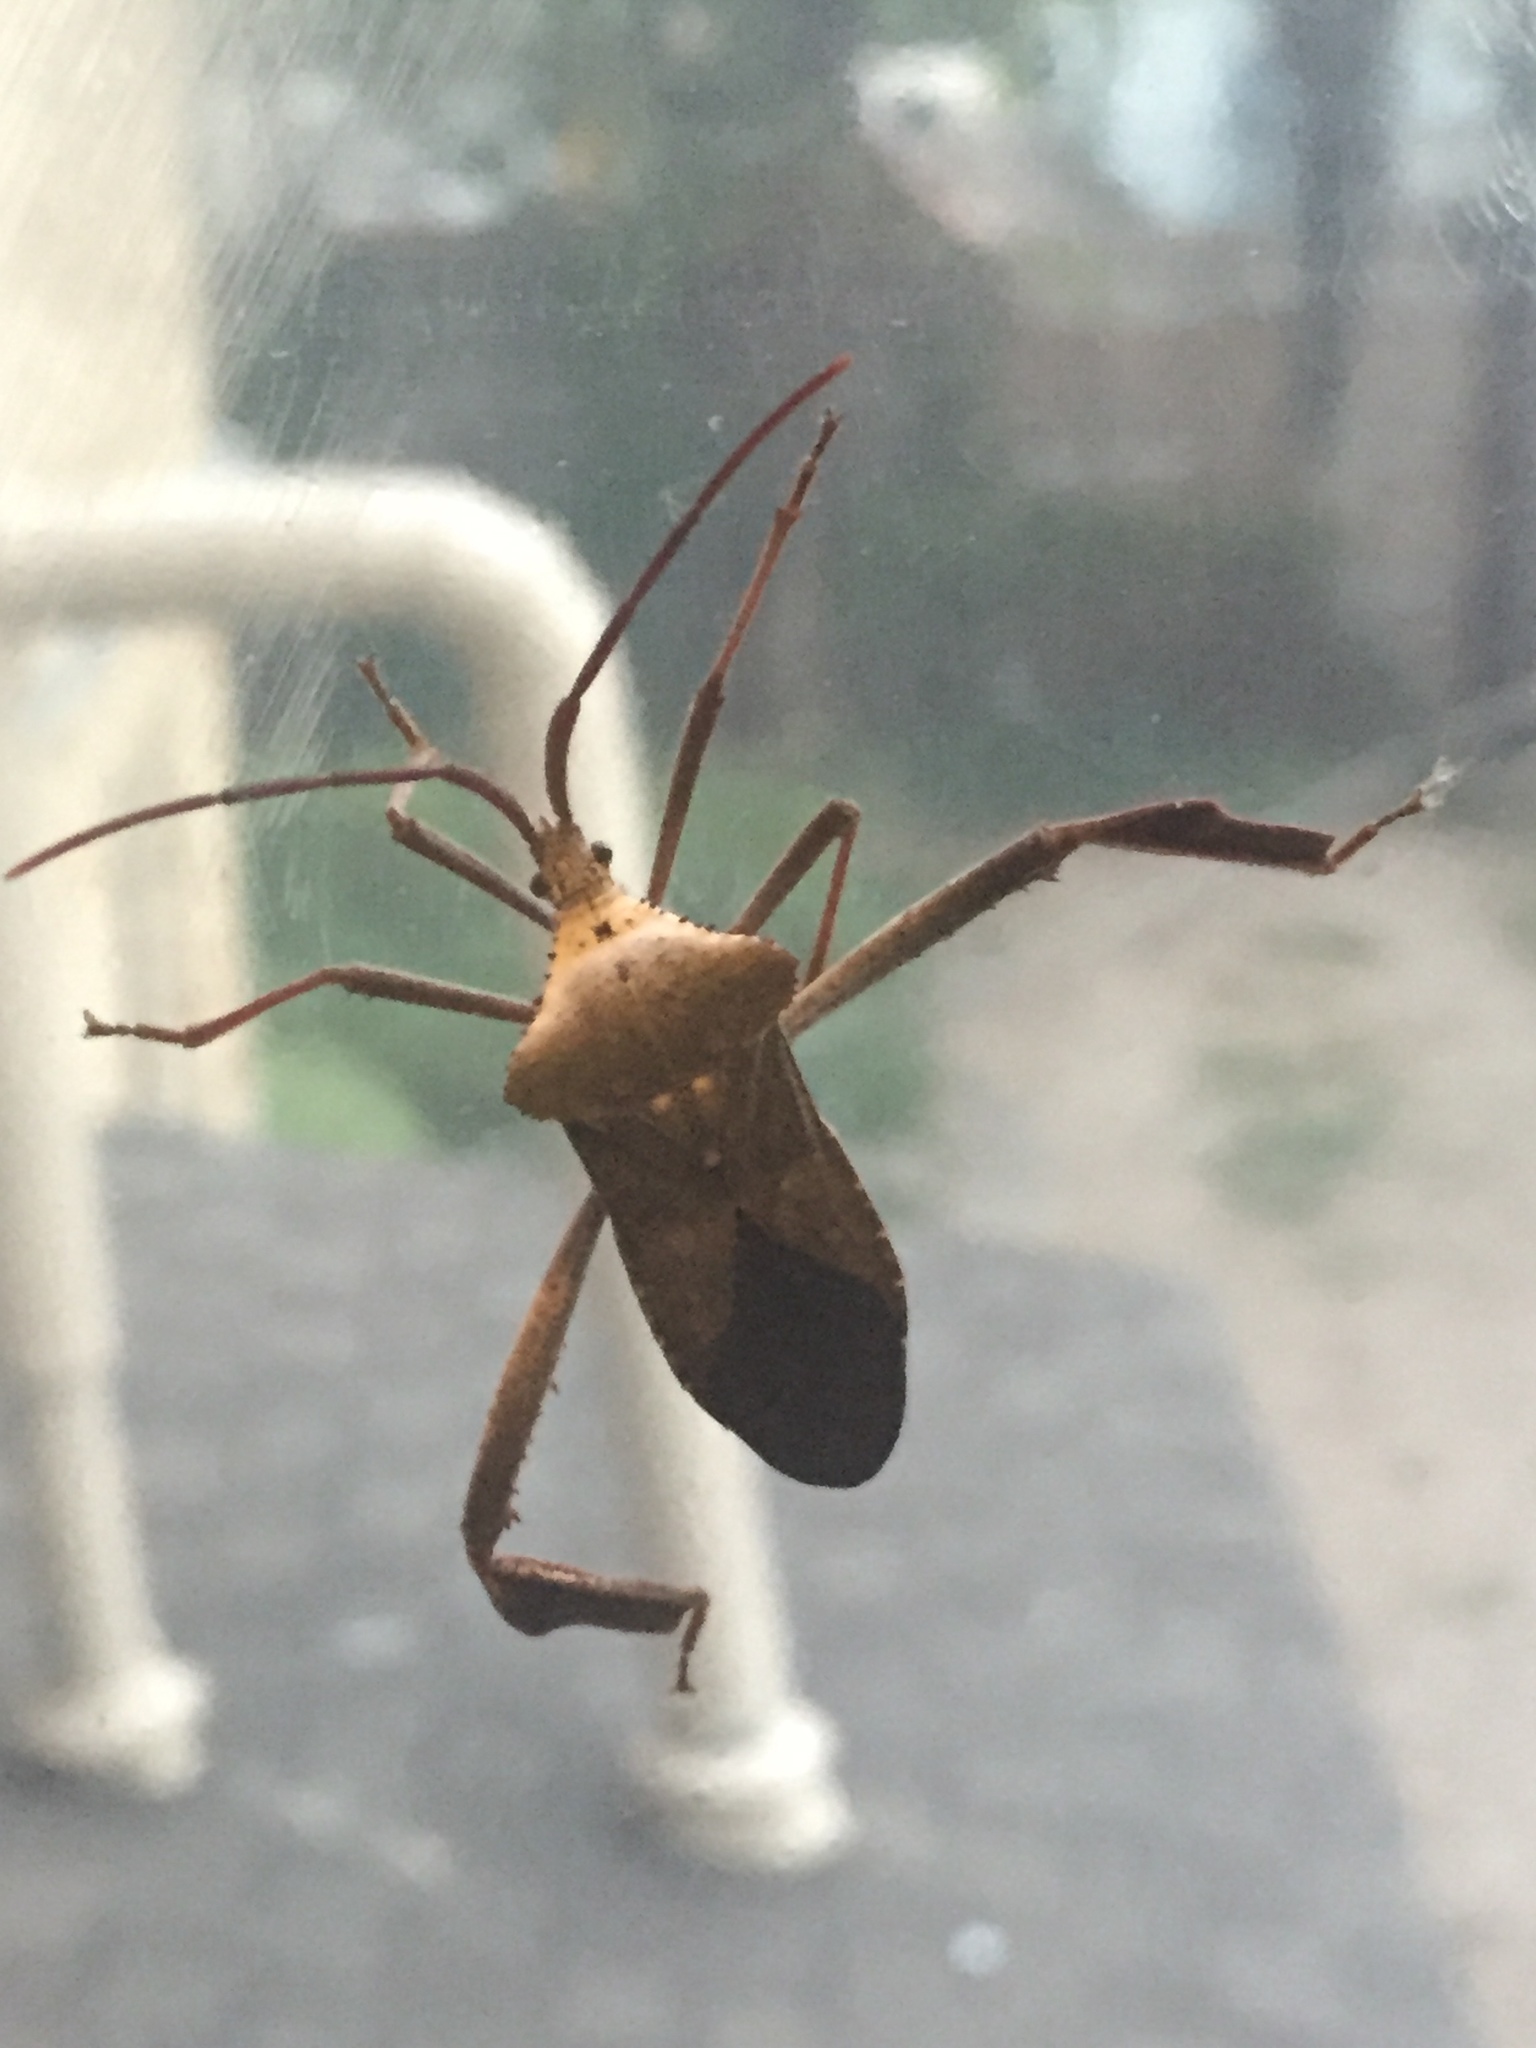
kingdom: Animalia
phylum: Arthropoda
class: Insecta
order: Hemiptera
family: Coreidae
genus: Acanthocephala
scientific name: Acanthocephala declivis
